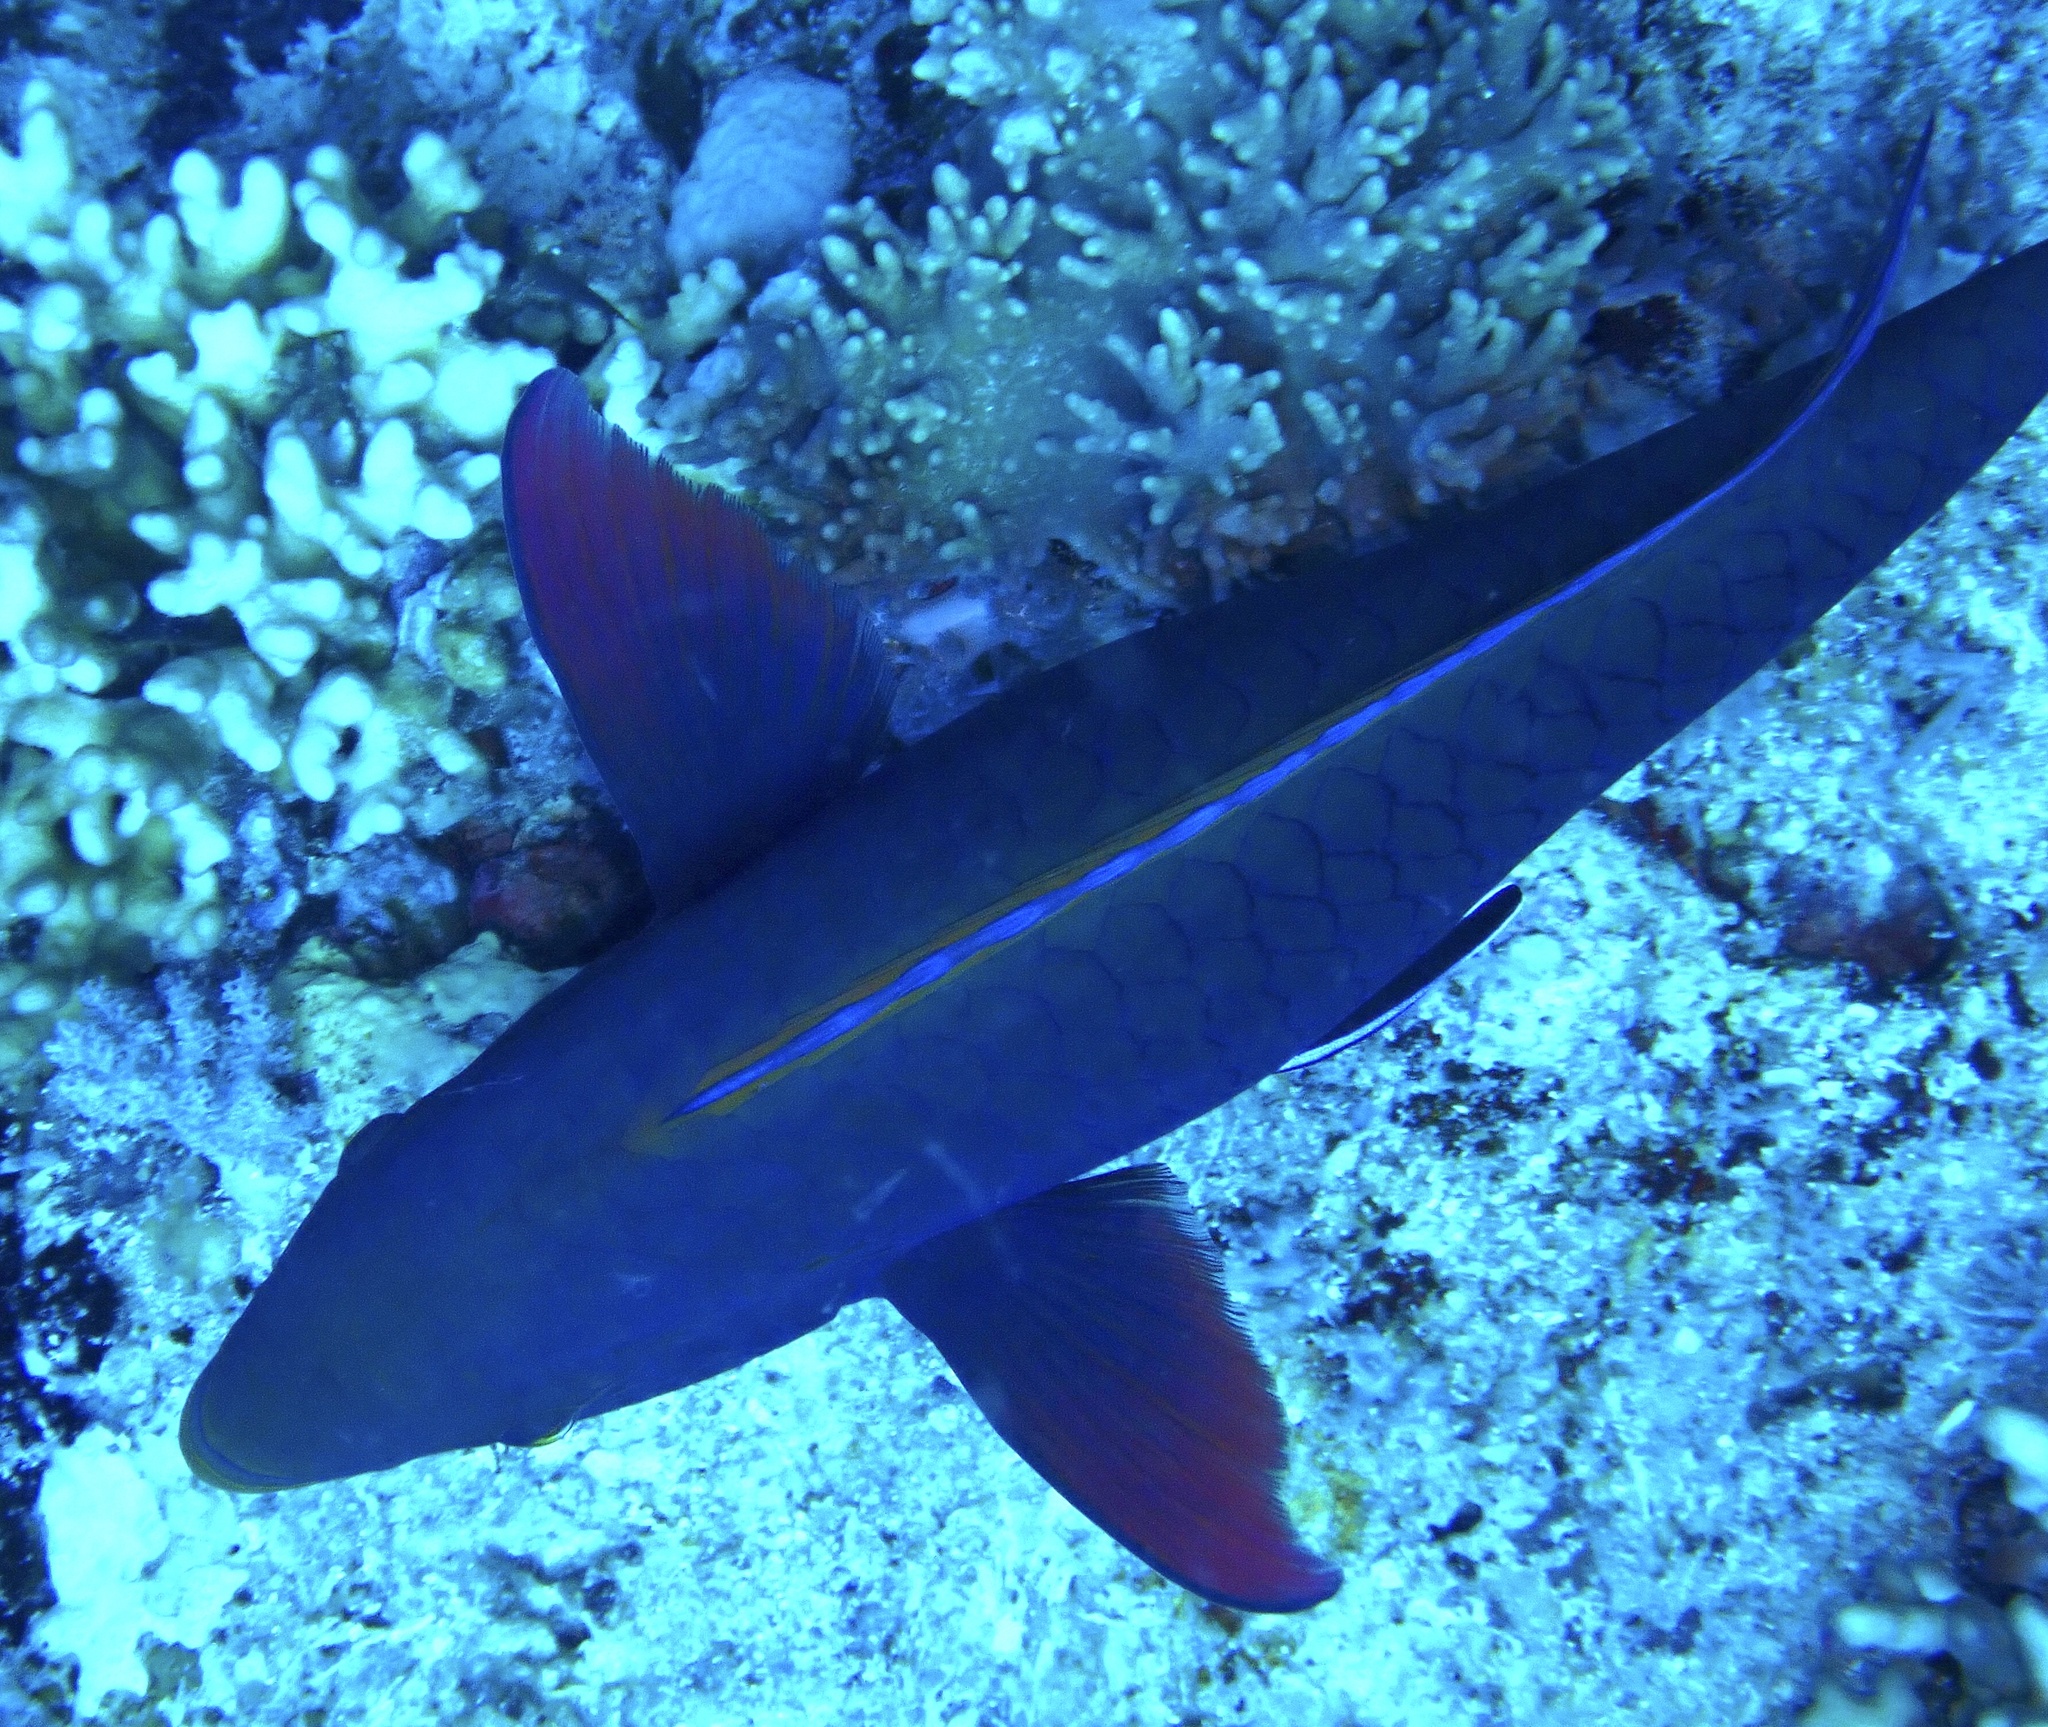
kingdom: Animalia
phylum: Chordata
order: Perciformes
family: Scaridae
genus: Scarus
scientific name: Scarus niger
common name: Dusky parrotfish
